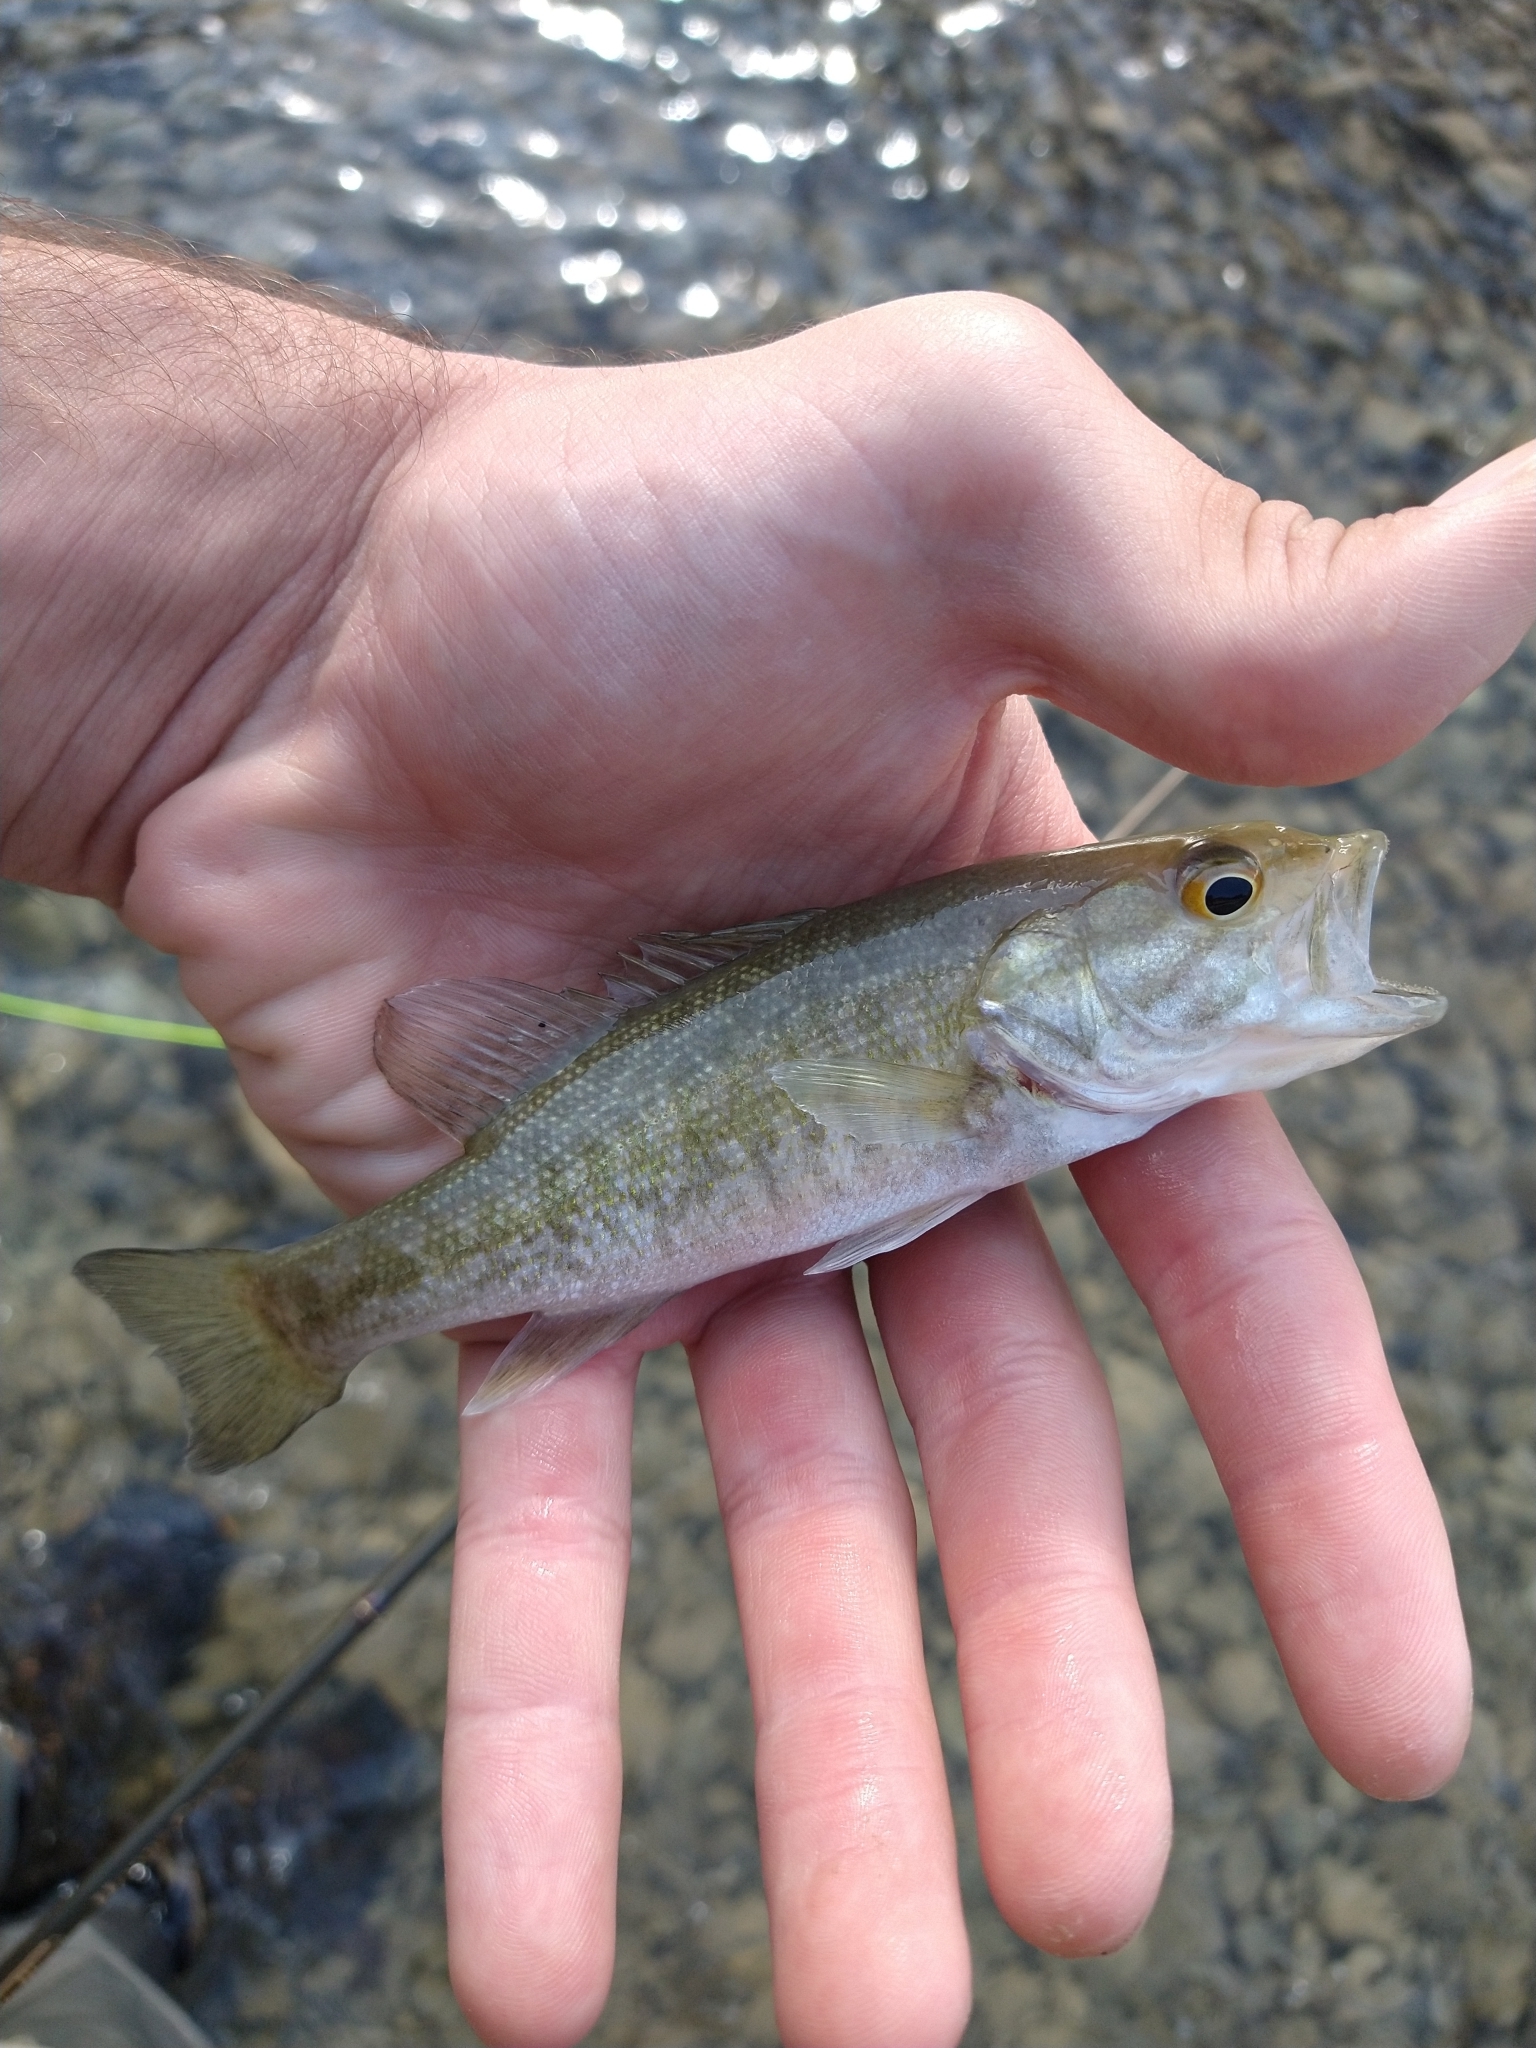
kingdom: Animalia
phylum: Chordata
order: Perciformes
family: Centrarchidae
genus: Micropterus
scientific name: Micropterus treculii
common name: Guadalupe bass
